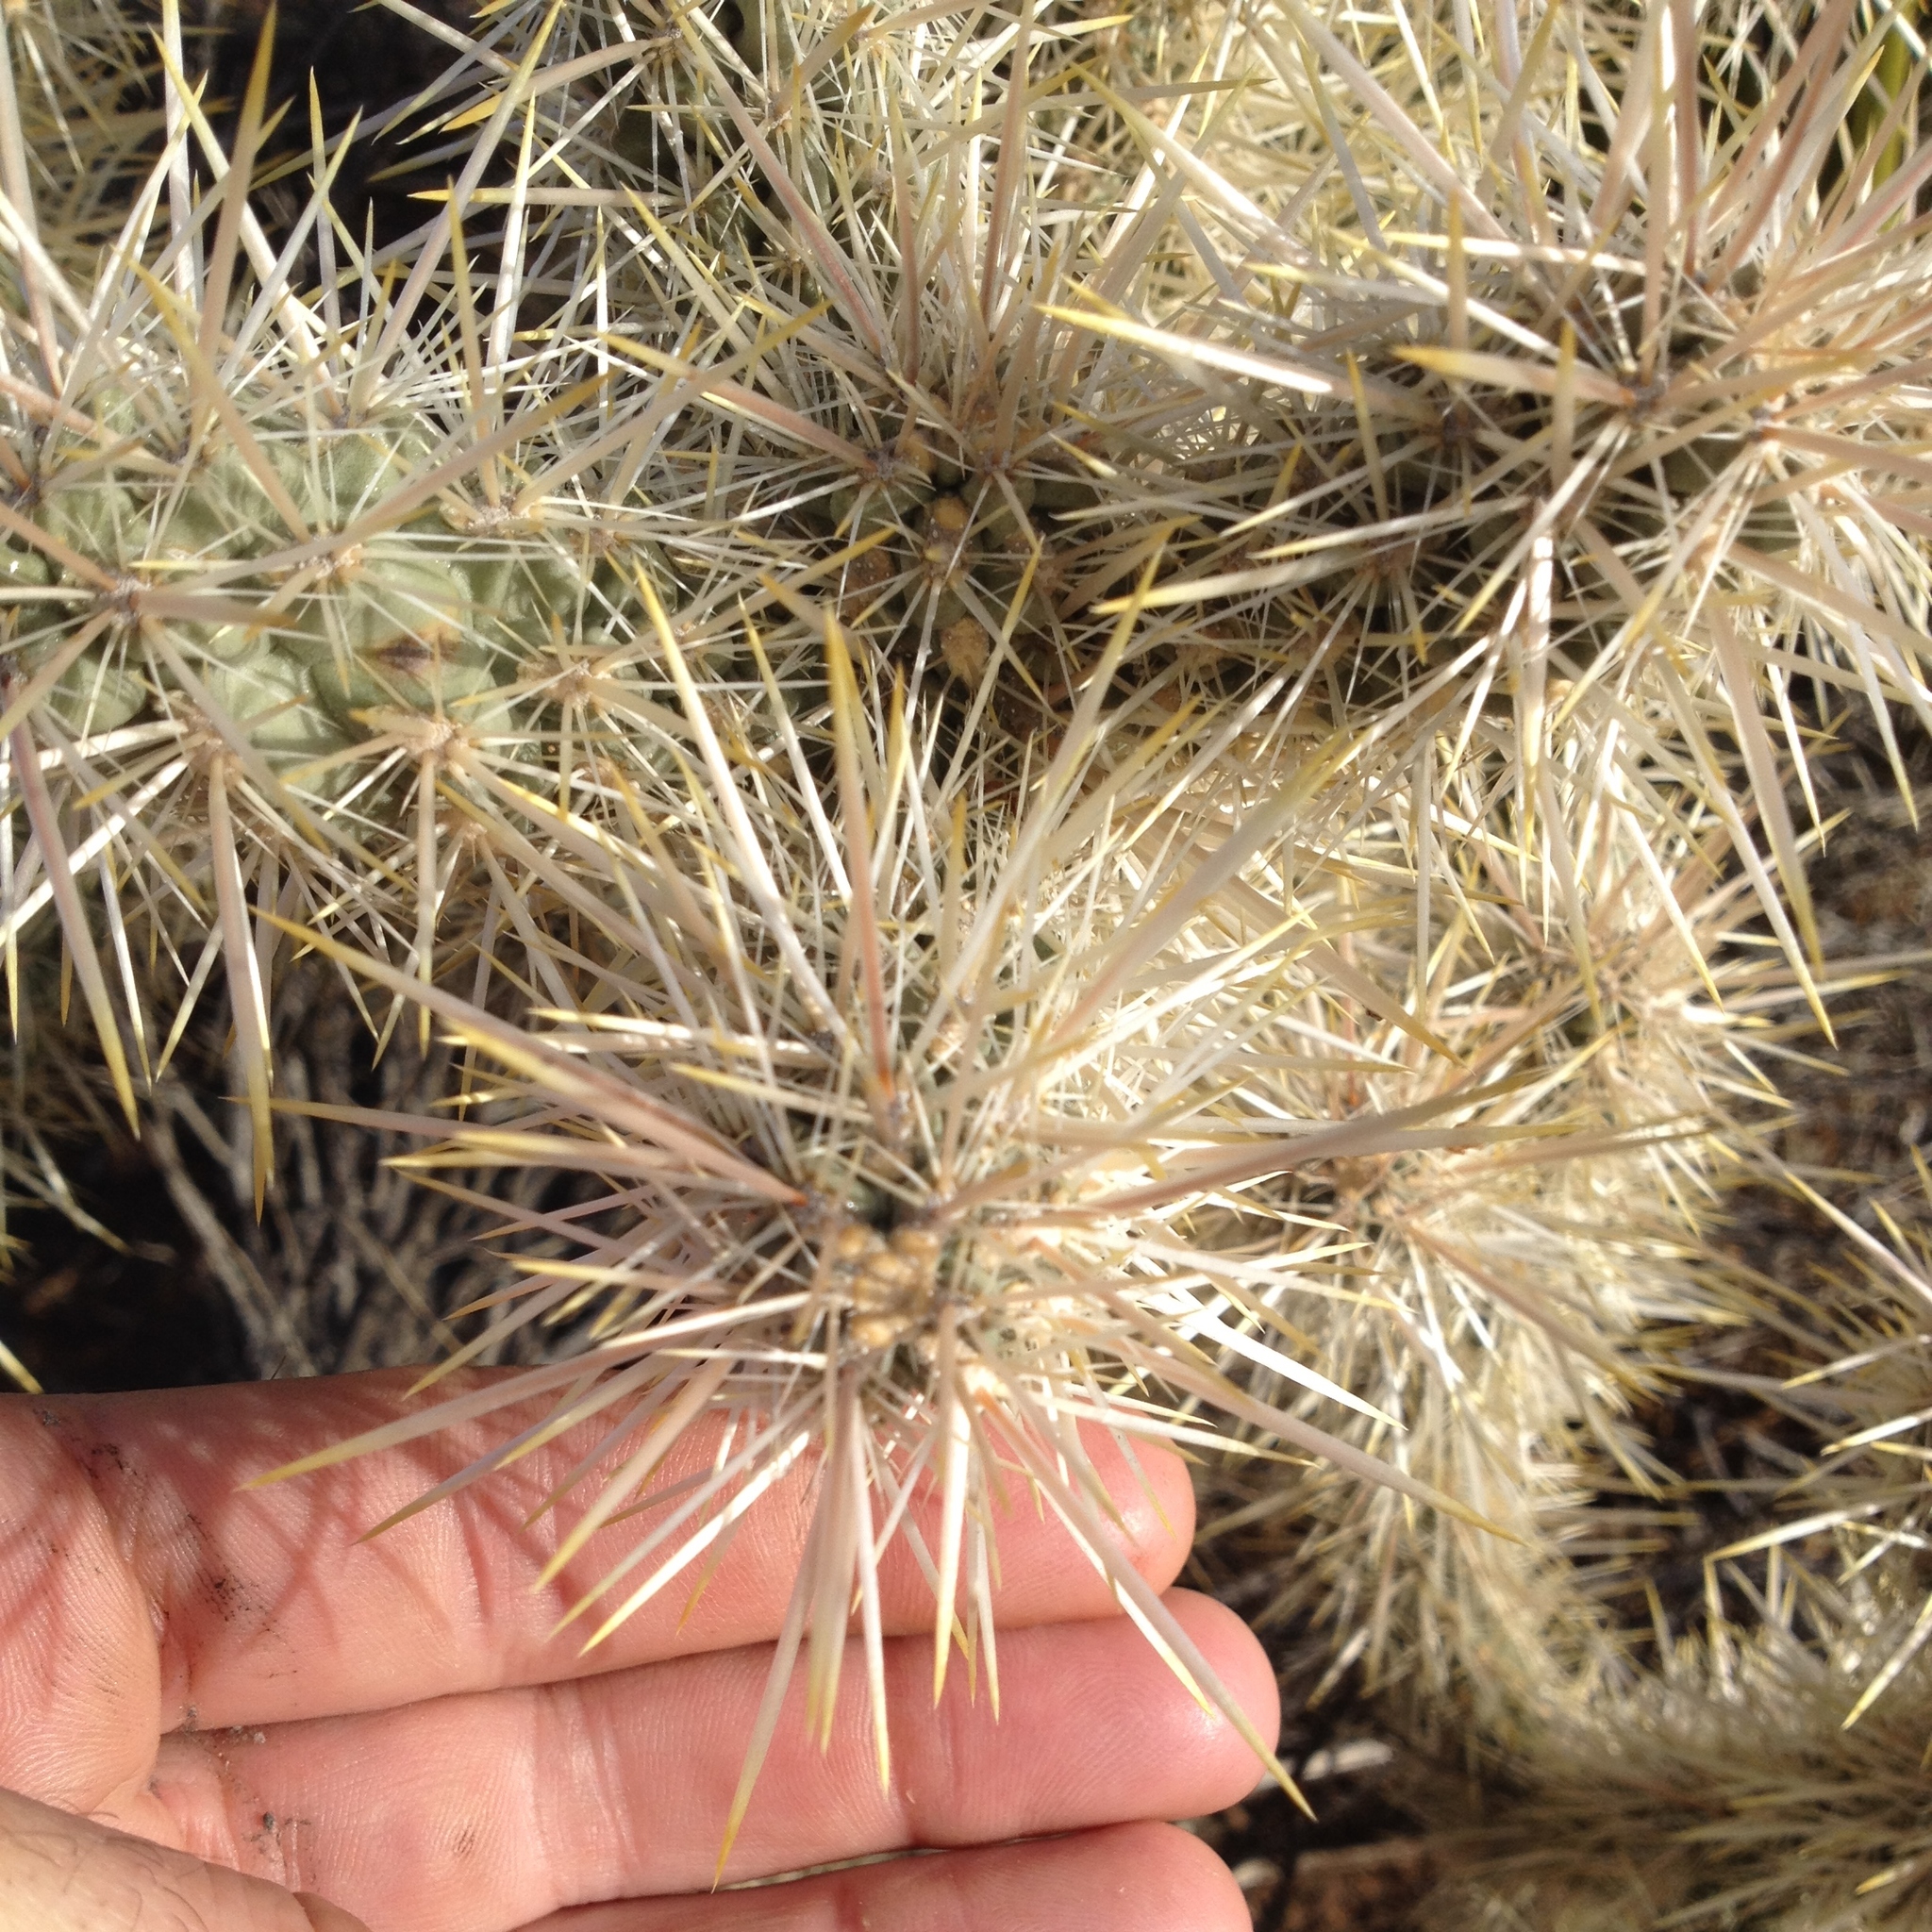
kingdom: Plantae
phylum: Tracheophyta
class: Magnoliopsida
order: Caryophyllales
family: Cactaceae
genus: Cylindropuntia
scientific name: Cylindropuntia echinocarpa
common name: Ground cholla
